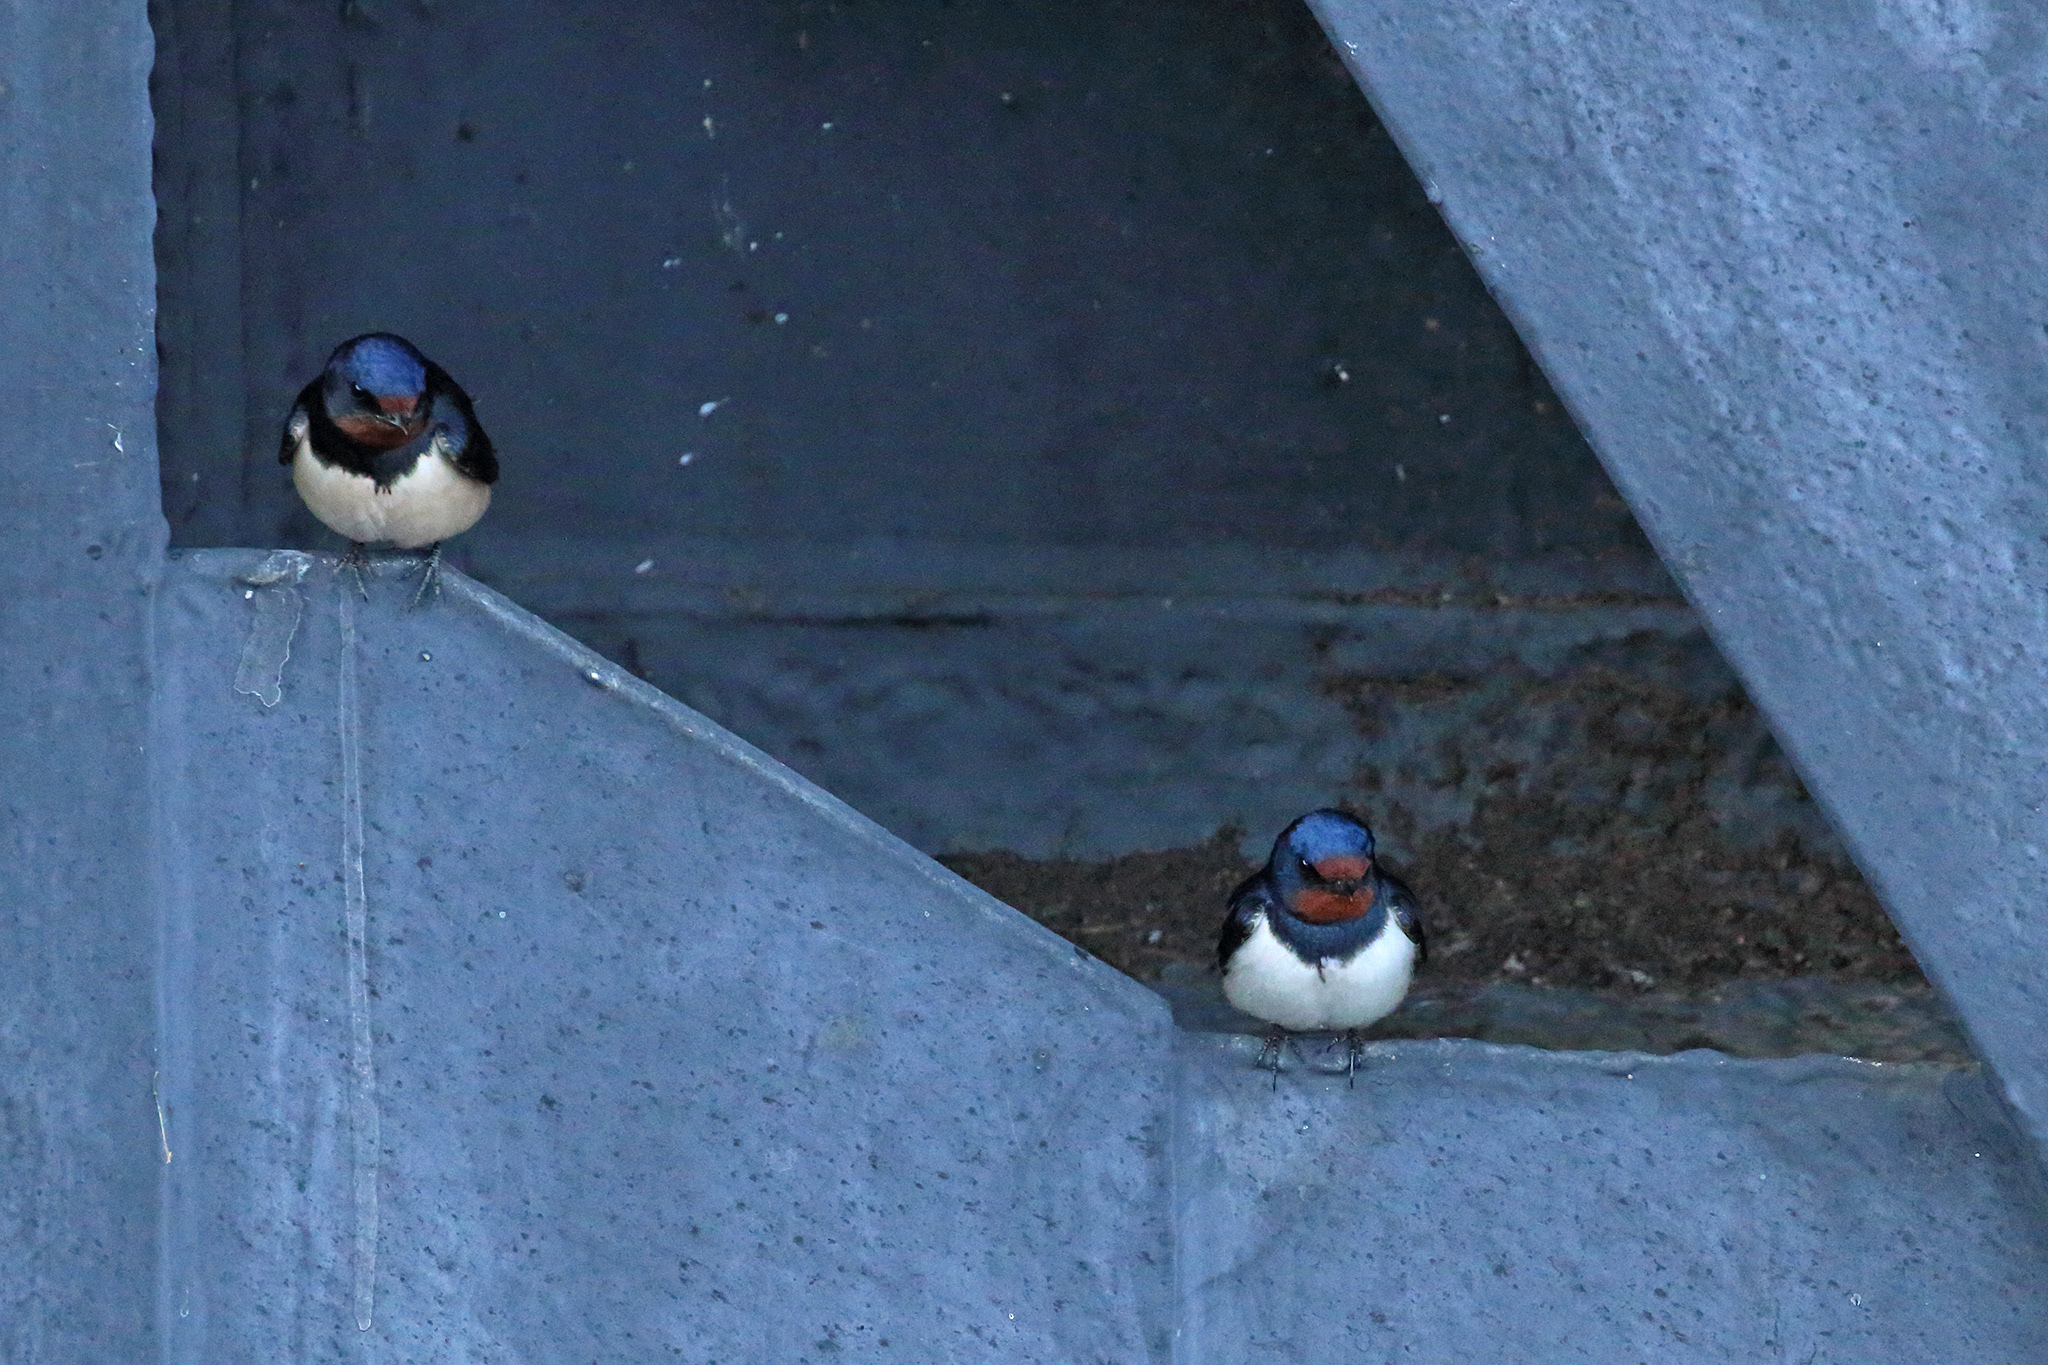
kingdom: Animalia
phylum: Chordata
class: Aves
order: Passeriformes
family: Hirundinidae
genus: Hirundo
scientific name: Hirundo rustica
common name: Barn swallow
